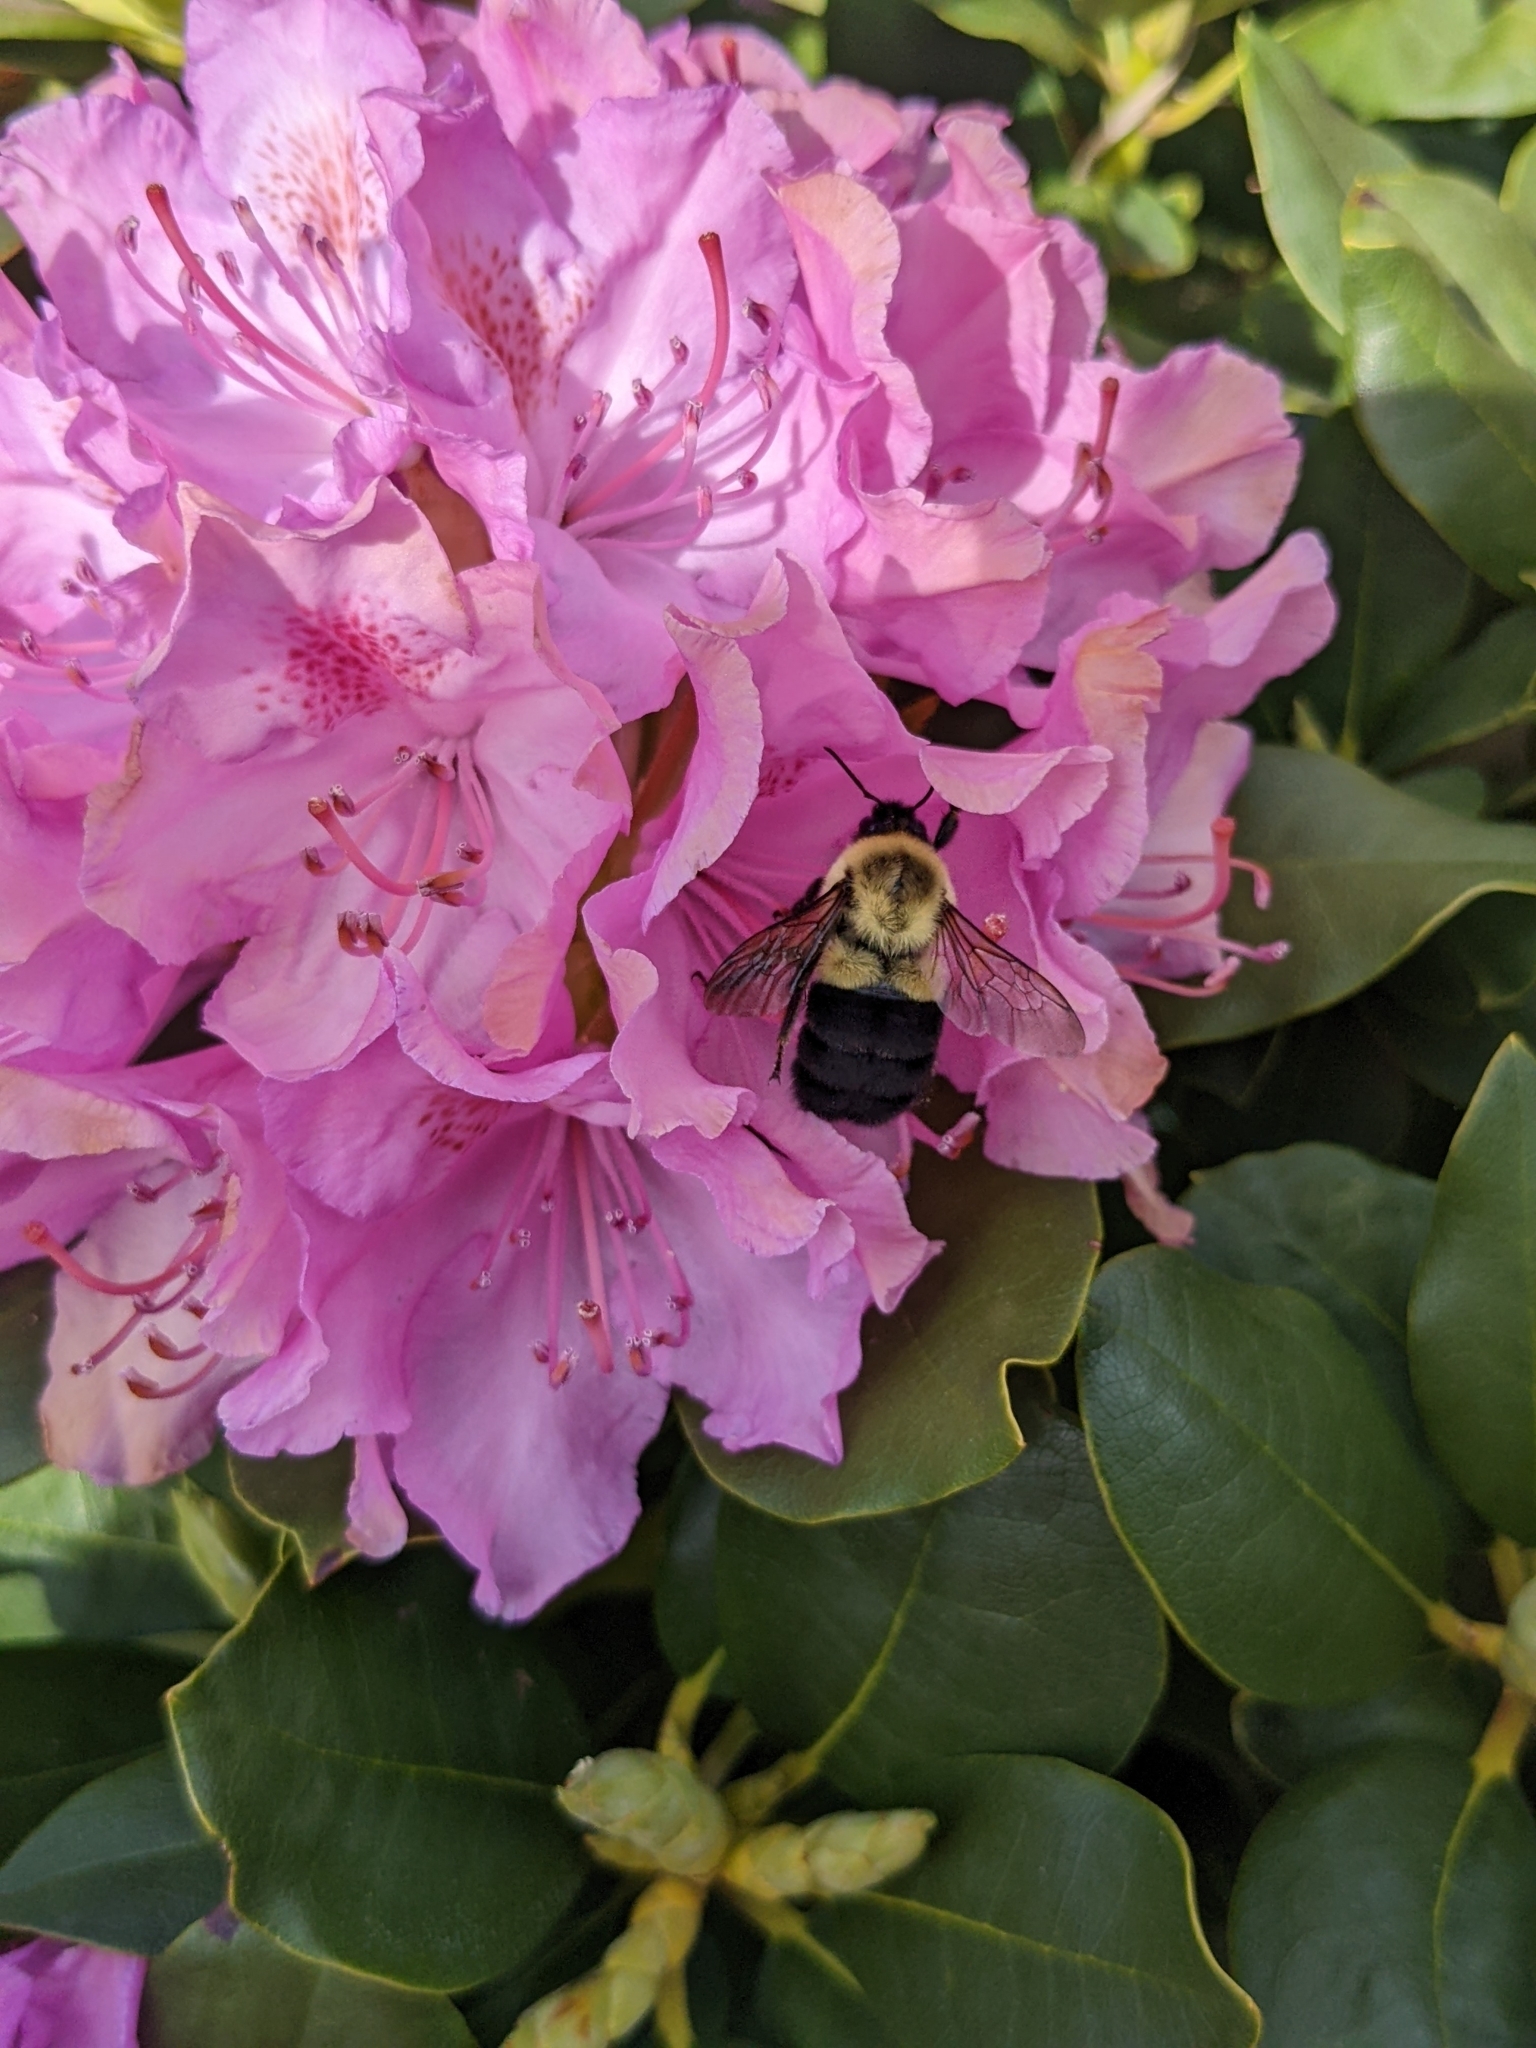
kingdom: Animalia
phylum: Arthropoda
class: Insecta
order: Hymenoptera
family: Apidae
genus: Bombus
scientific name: Bombus impatiens
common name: Common eastern bumble bee
